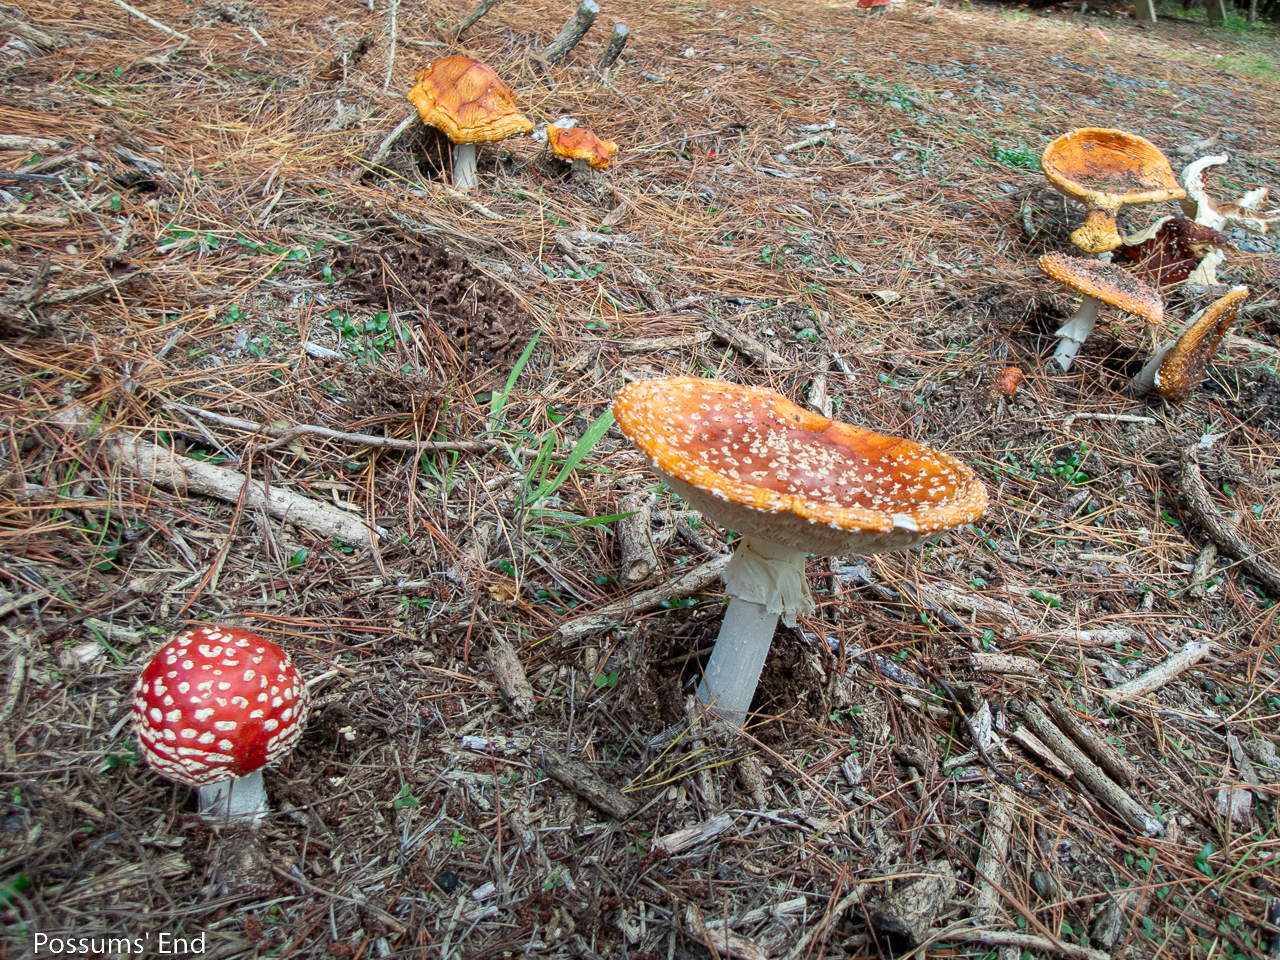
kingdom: Fungi
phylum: Basidiomycota
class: Agaricomycetes
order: Agaricales
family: Amanitaceae
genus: Amanita
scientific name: Amanita muscaria
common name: Fly agaric
